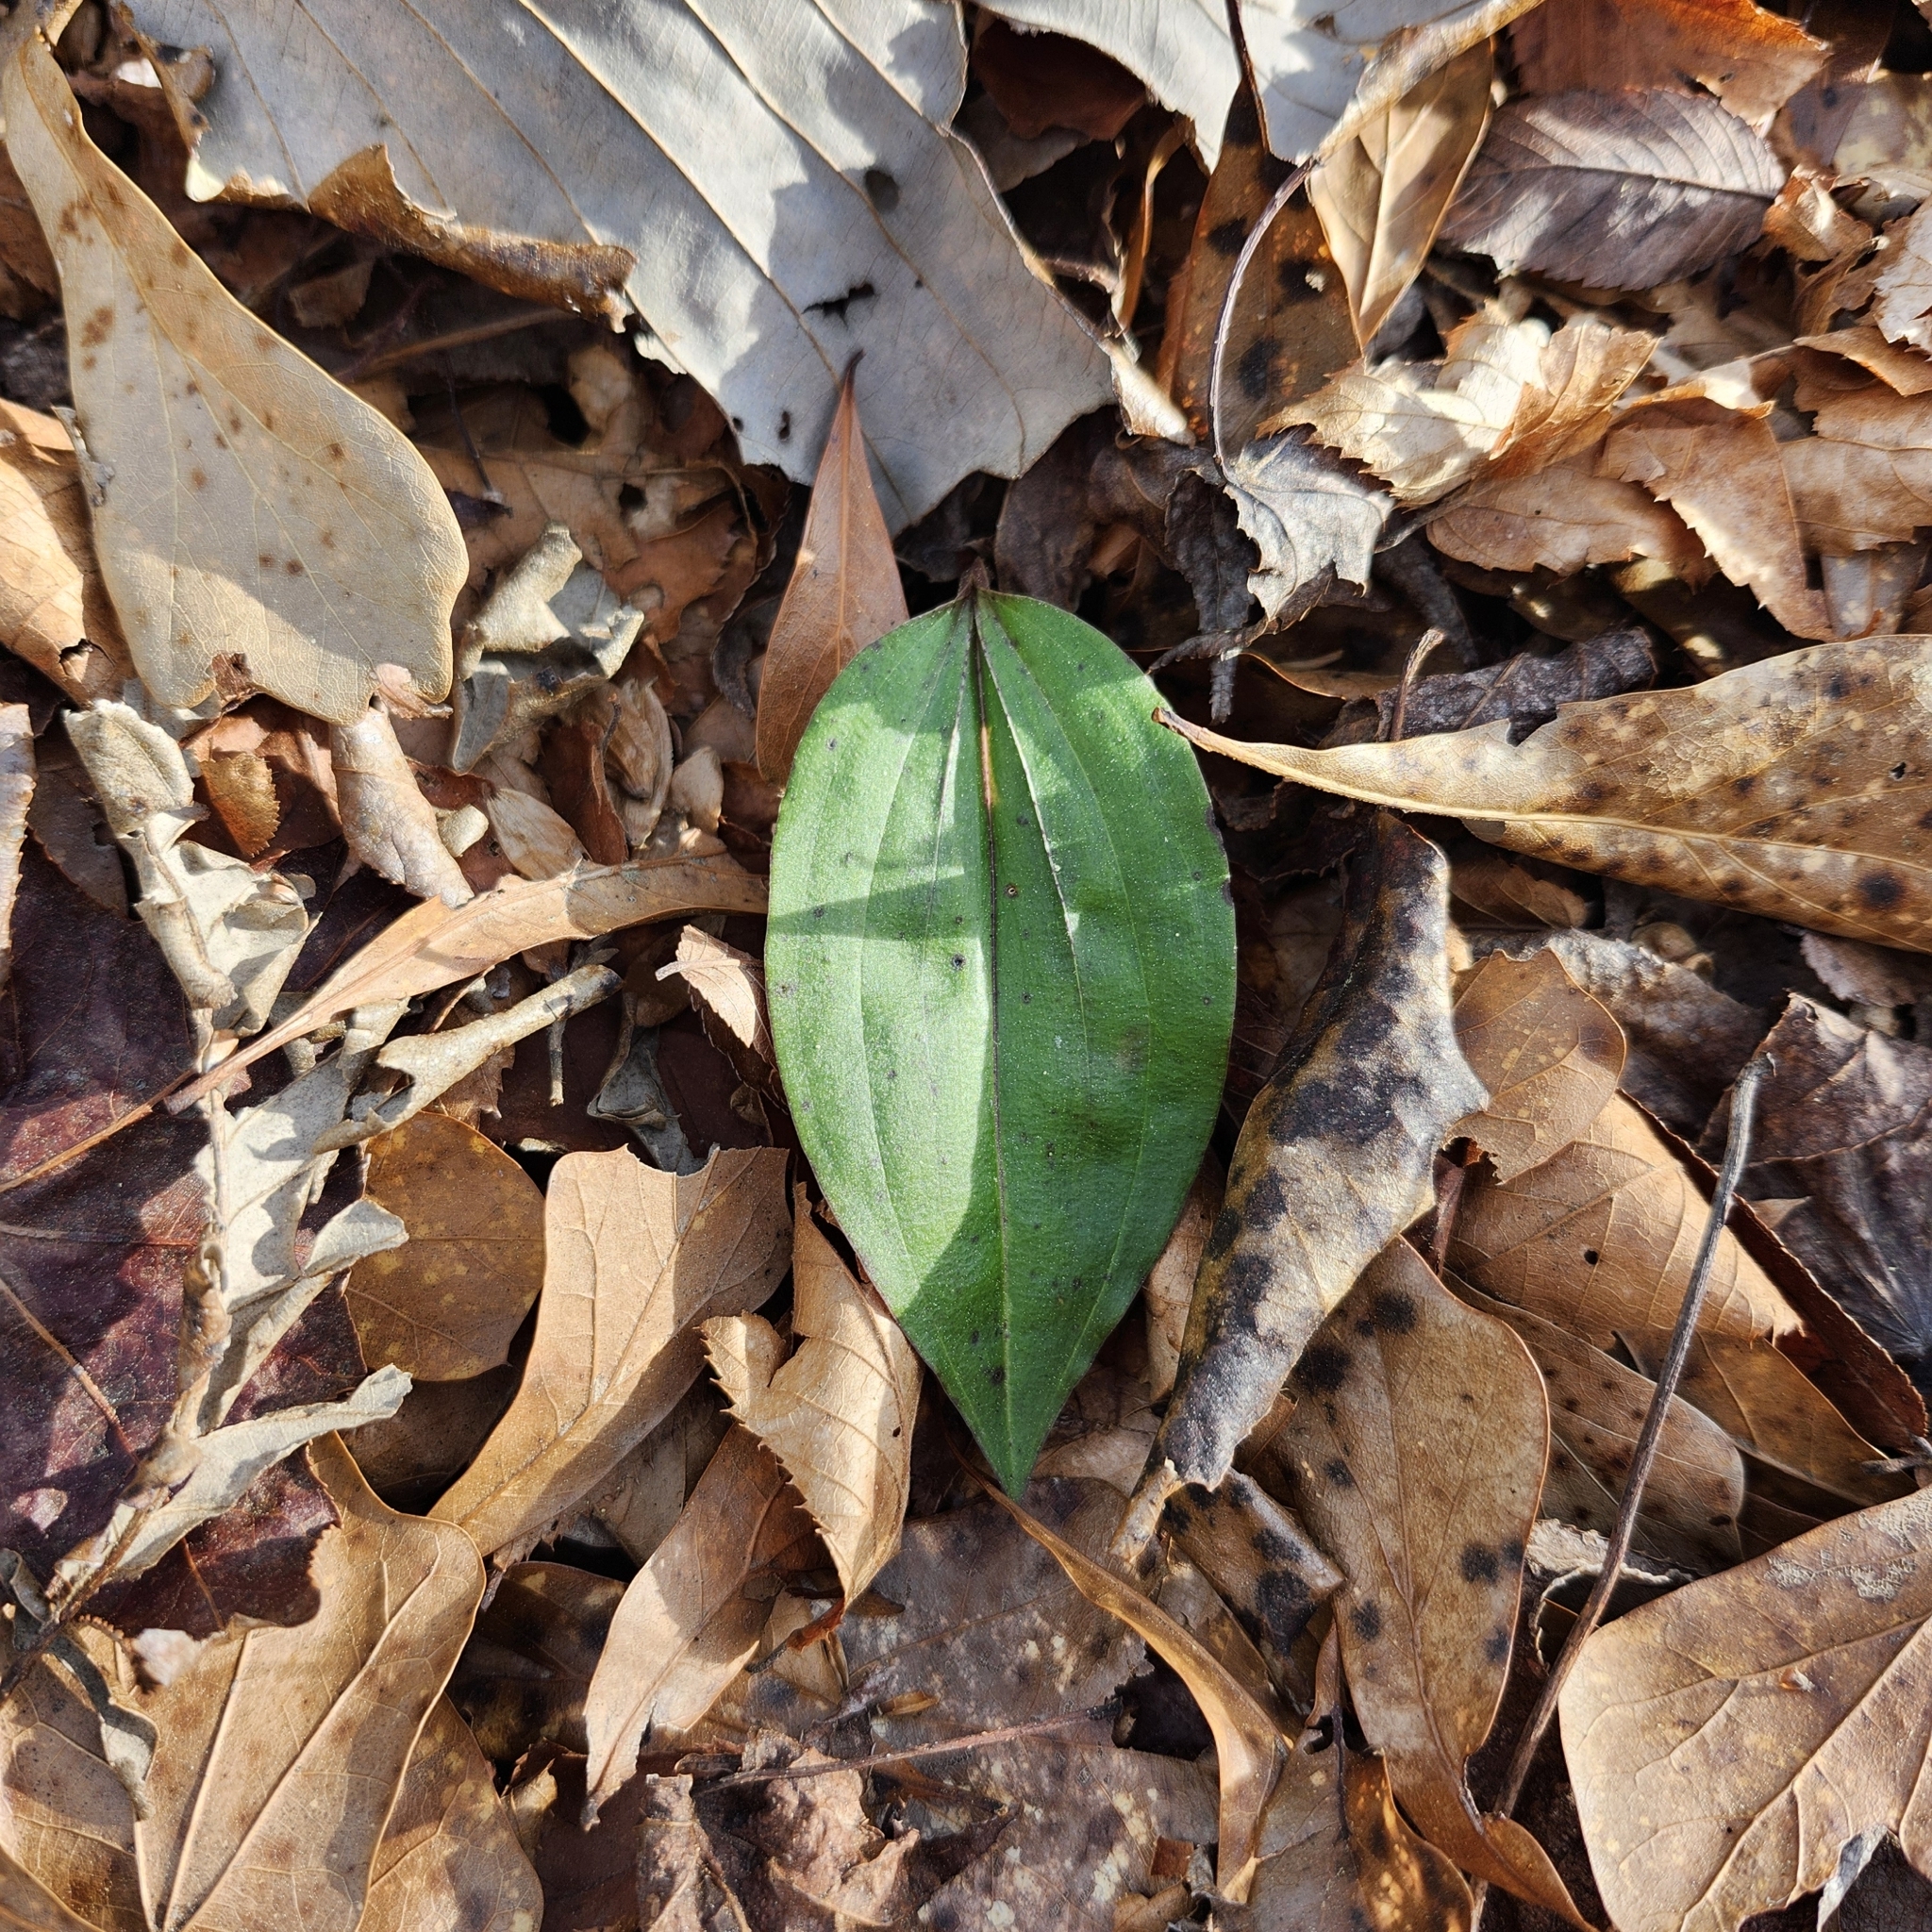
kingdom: Plantae
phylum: Tracheophyta
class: Liliopsida
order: Asparagales
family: Orchidaceae
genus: Tipularia
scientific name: Tipularia discolor
